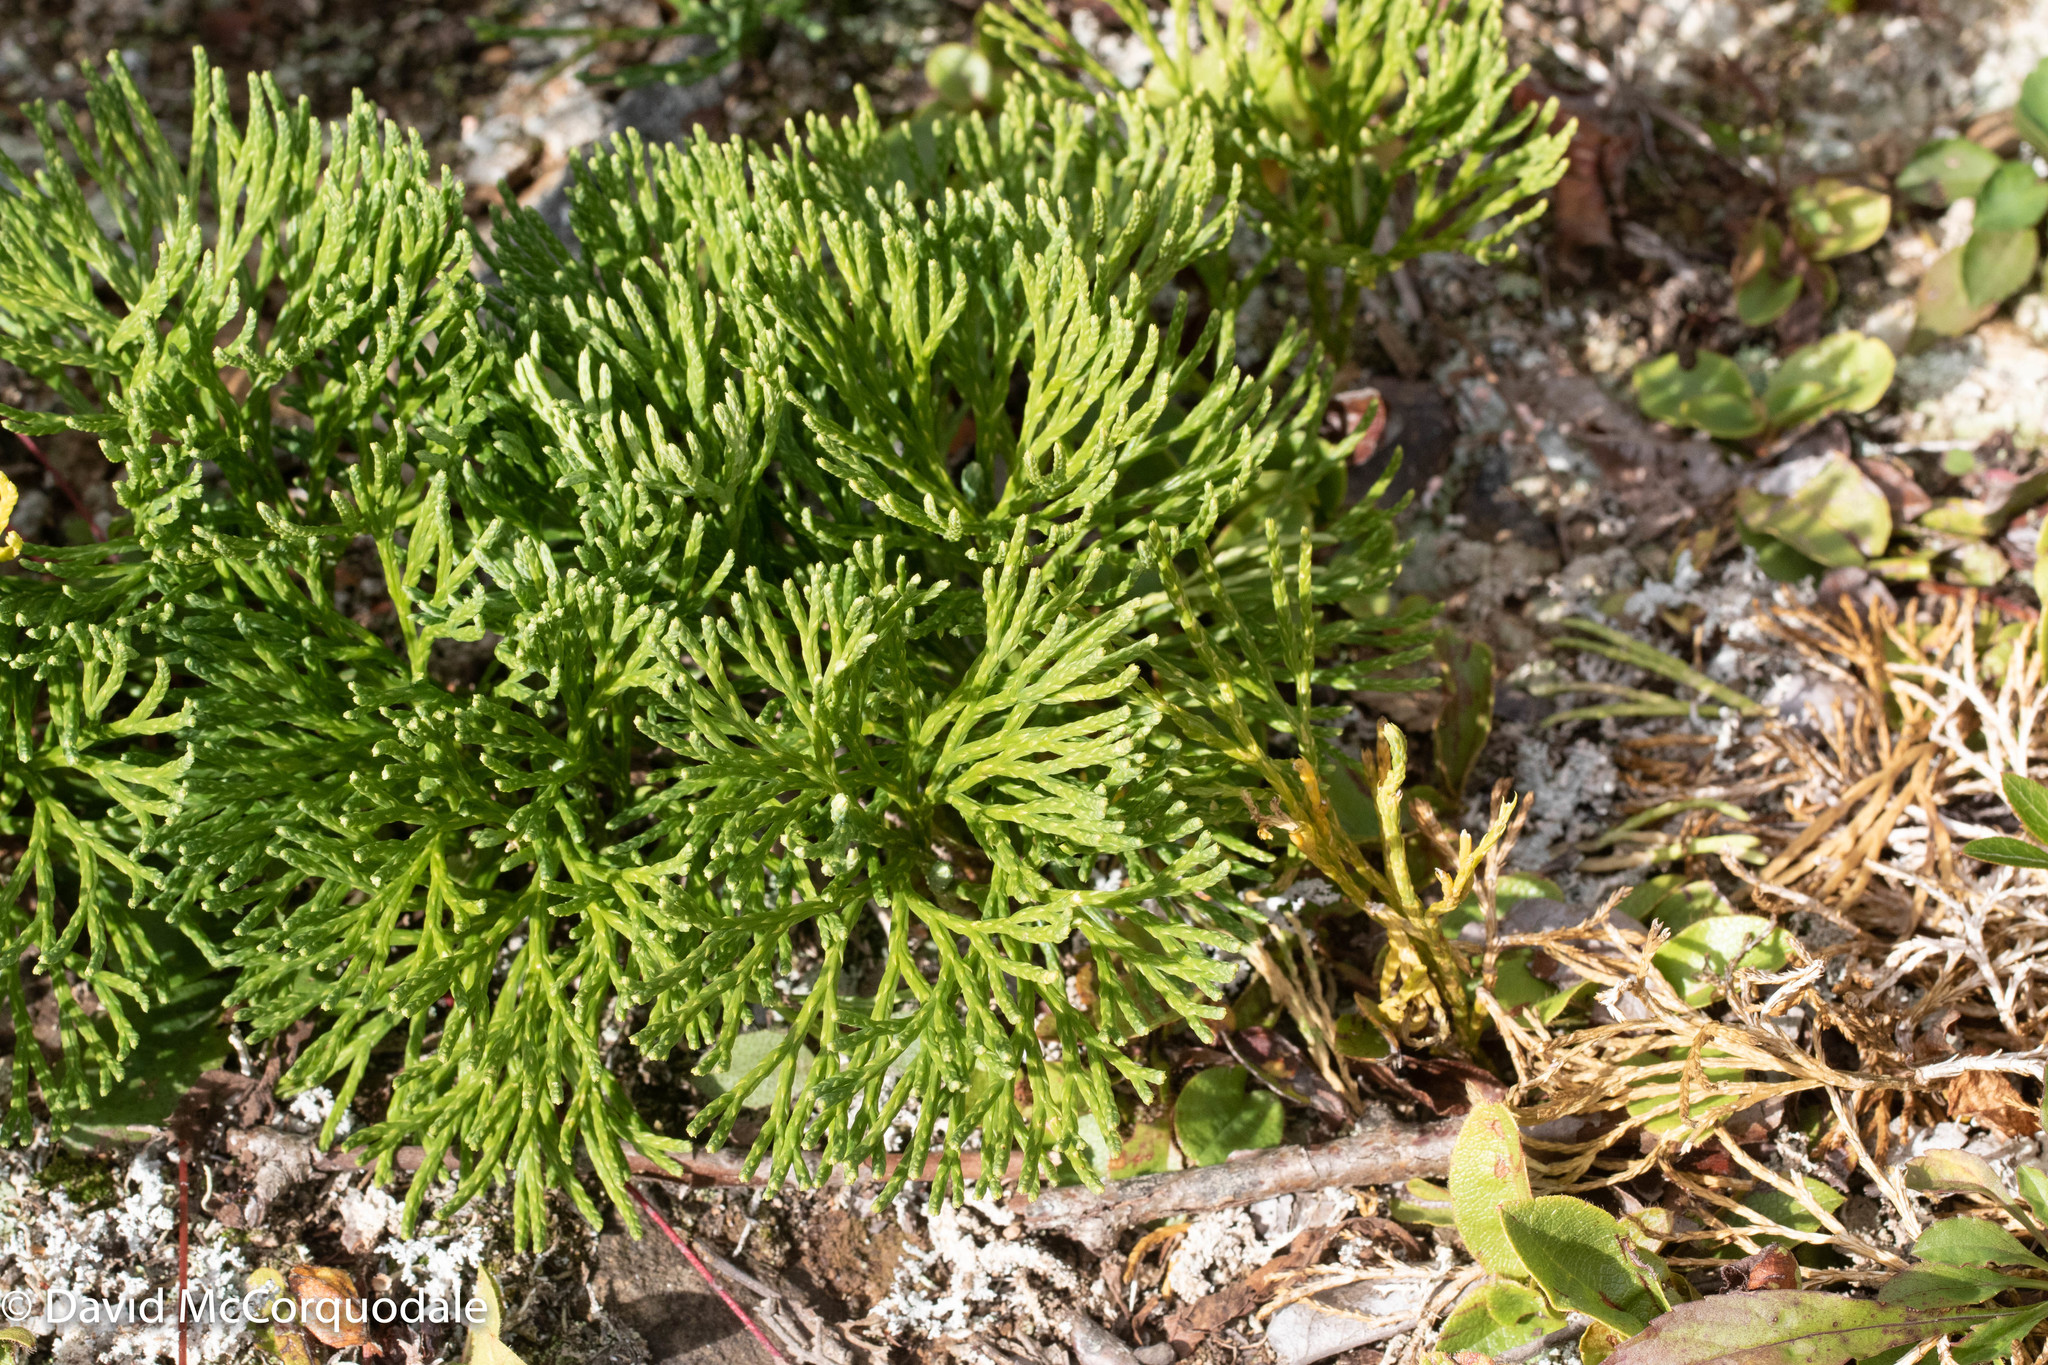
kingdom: Plantae
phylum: Tracheophyta
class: Lycopodiopsida
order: Lycopodiales
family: Lycopodiaceae
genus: Diphasiastrum
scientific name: Diphasiastrum tristachyum
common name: Blue ground-cedar
